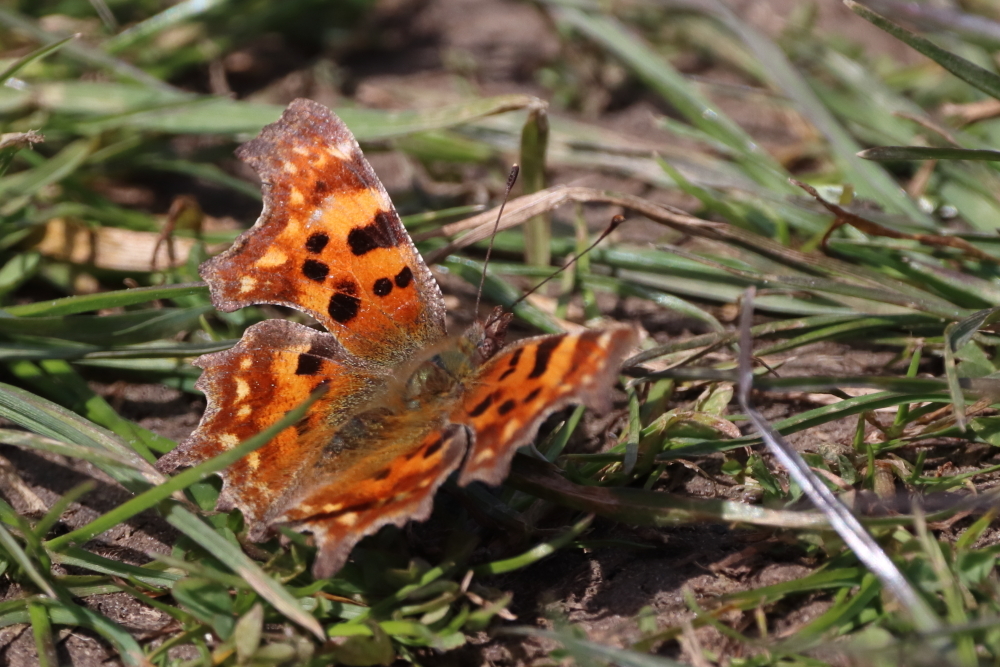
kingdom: Animalia
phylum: Arthropoda
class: Insecta
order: Lepidoptera
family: Nymphalidae
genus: Polygonia
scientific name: Polygonia c-album
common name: Comma
